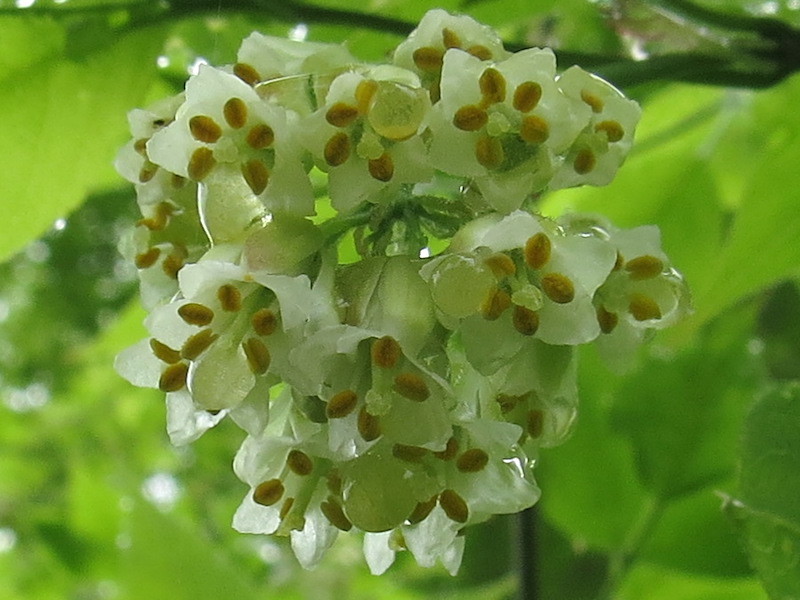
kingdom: Plantae
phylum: Tracheophyta
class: Magnoliopsida
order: Crossosomatales
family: Staphyleaceae
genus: Staphylea
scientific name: Staphylea trifolia
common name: American bladdernut
